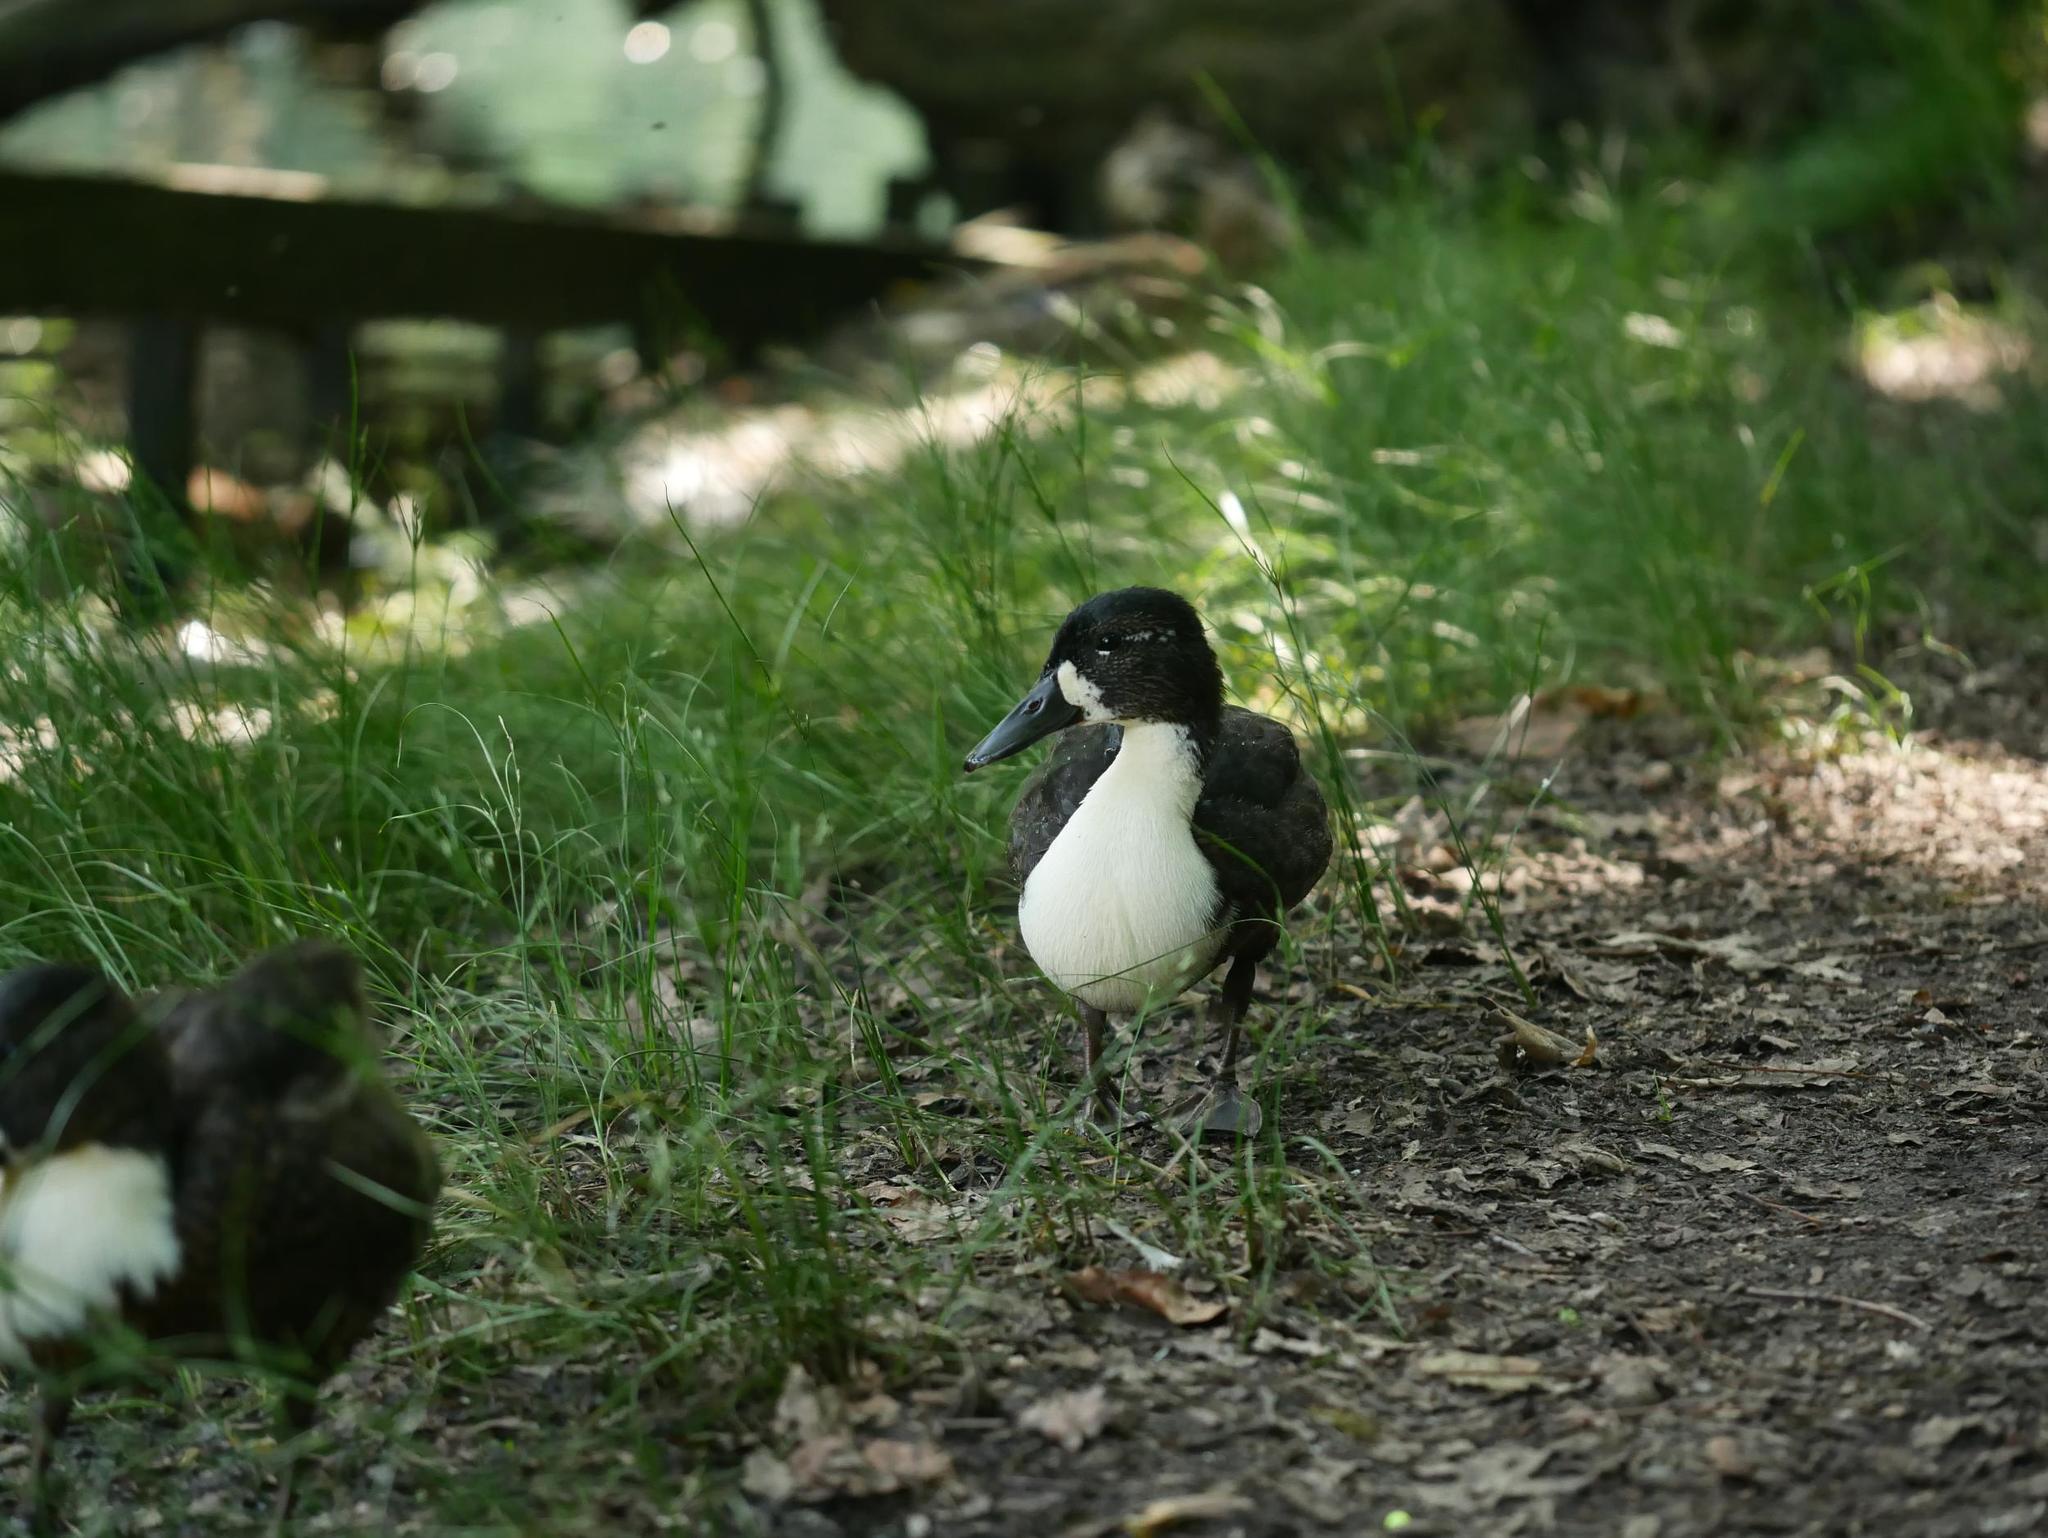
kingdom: Animalia
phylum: Chordata
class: Aves
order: Anseriformes
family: Anatidae
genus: Anas
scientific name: Anas platyrhynchos
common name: Mallard
